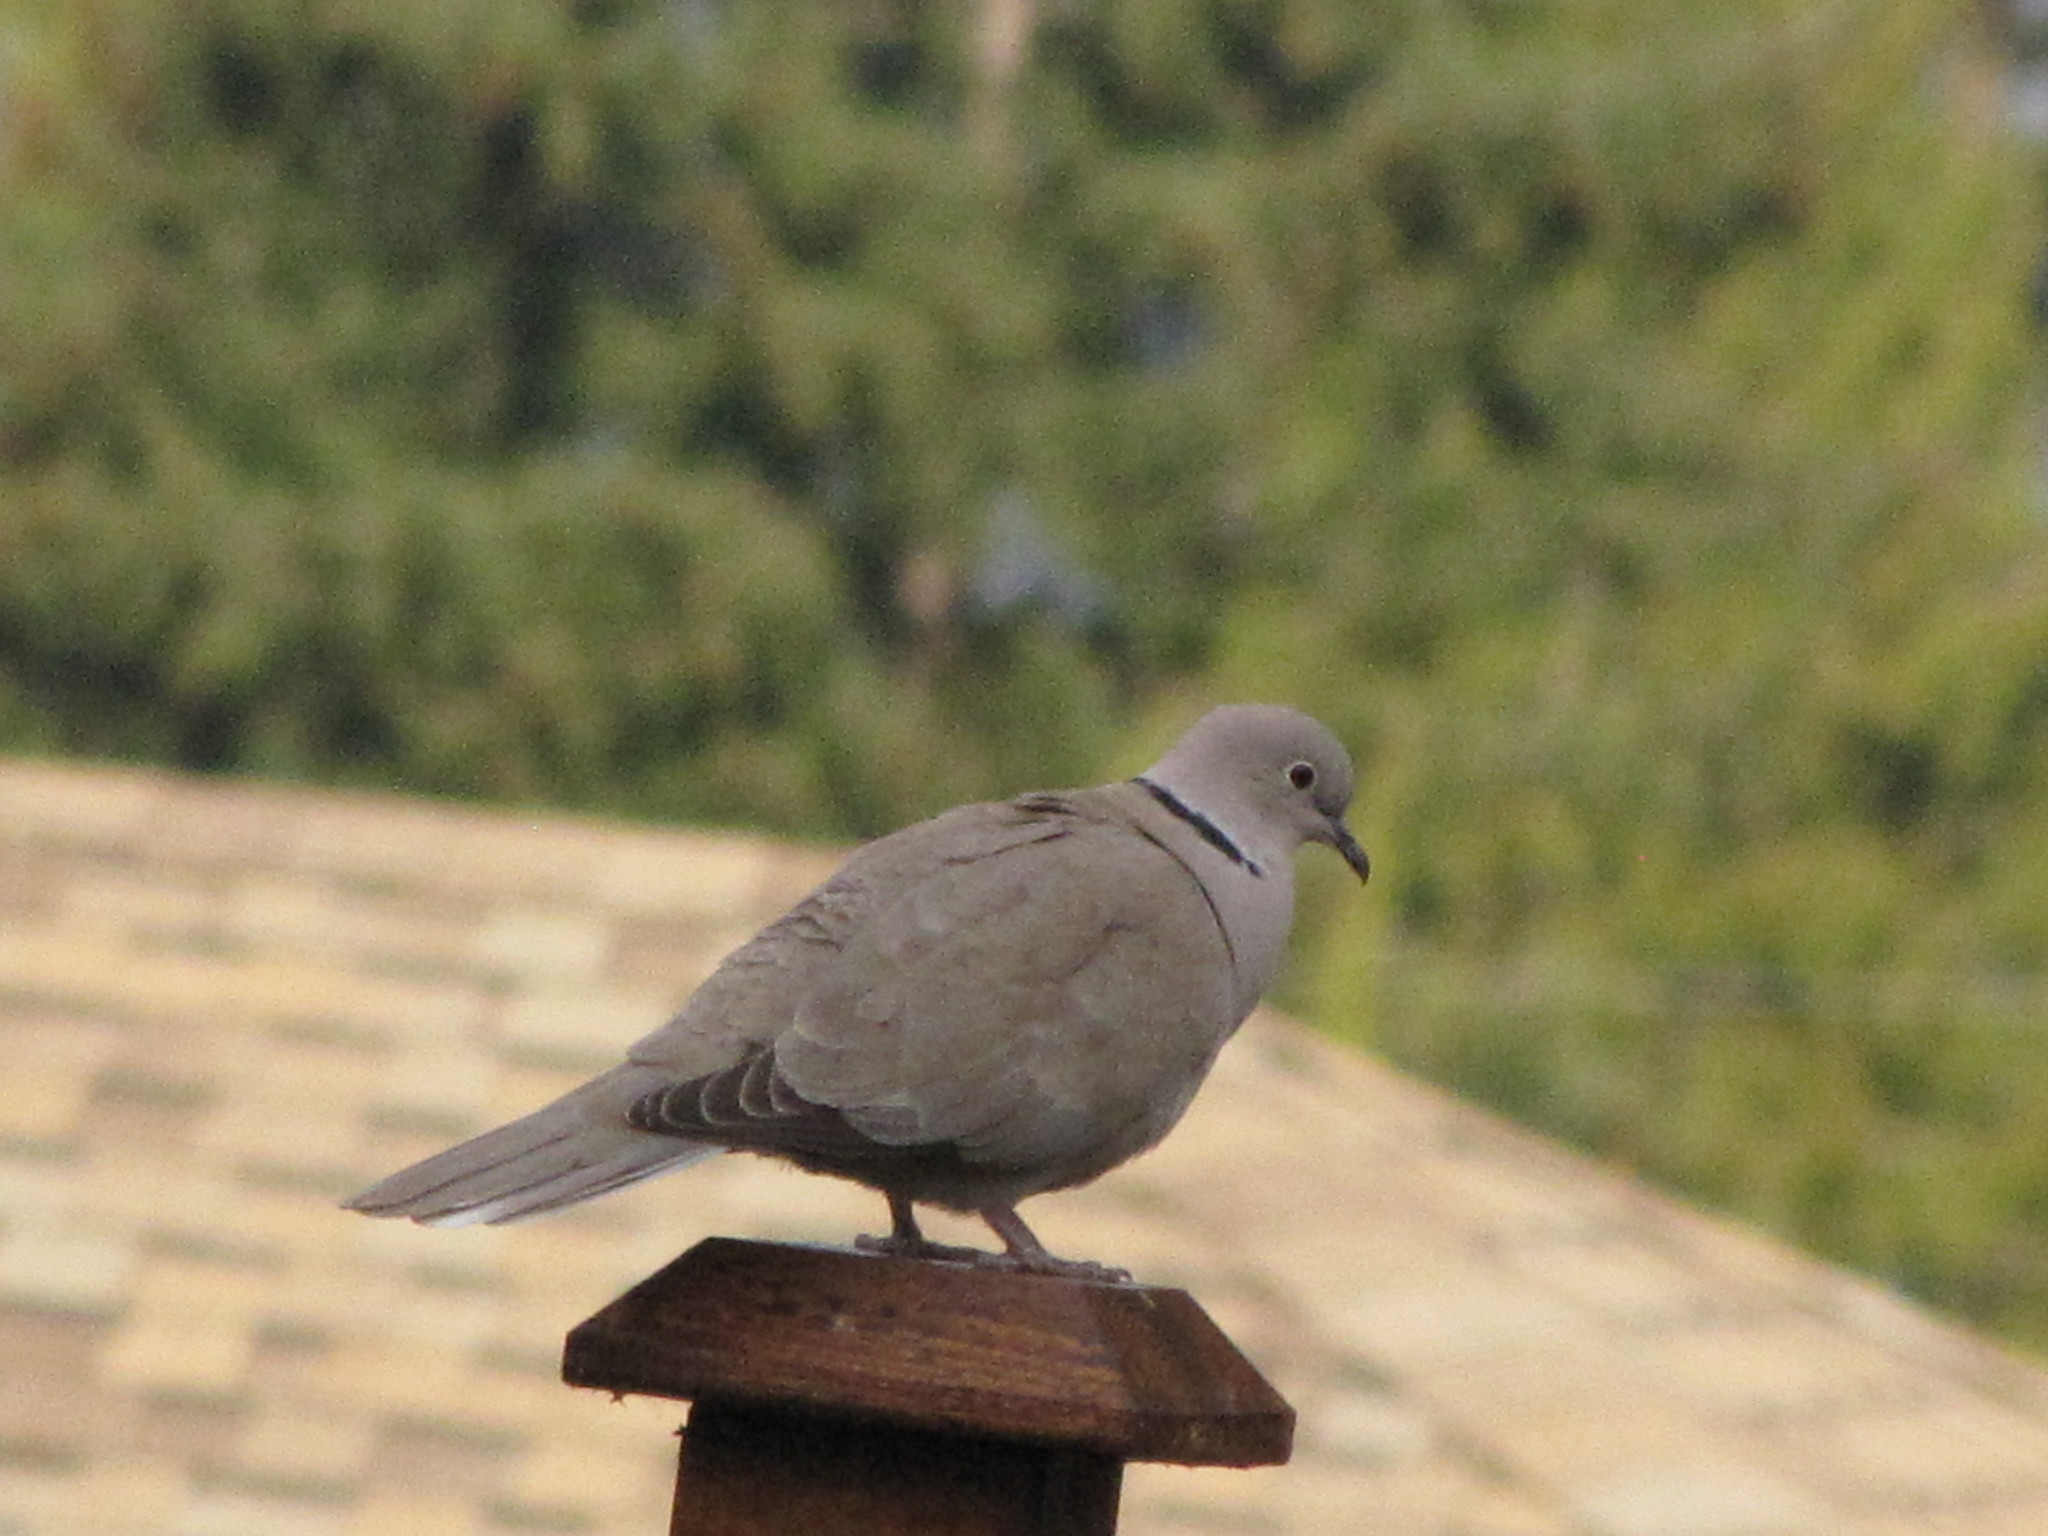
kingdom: Animalia
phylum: Chordata
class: Aves
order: Columbiformes
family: Columbidae
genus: Streptopelia
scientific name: Streptopelia decaocto
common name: Eurasian collared dove
